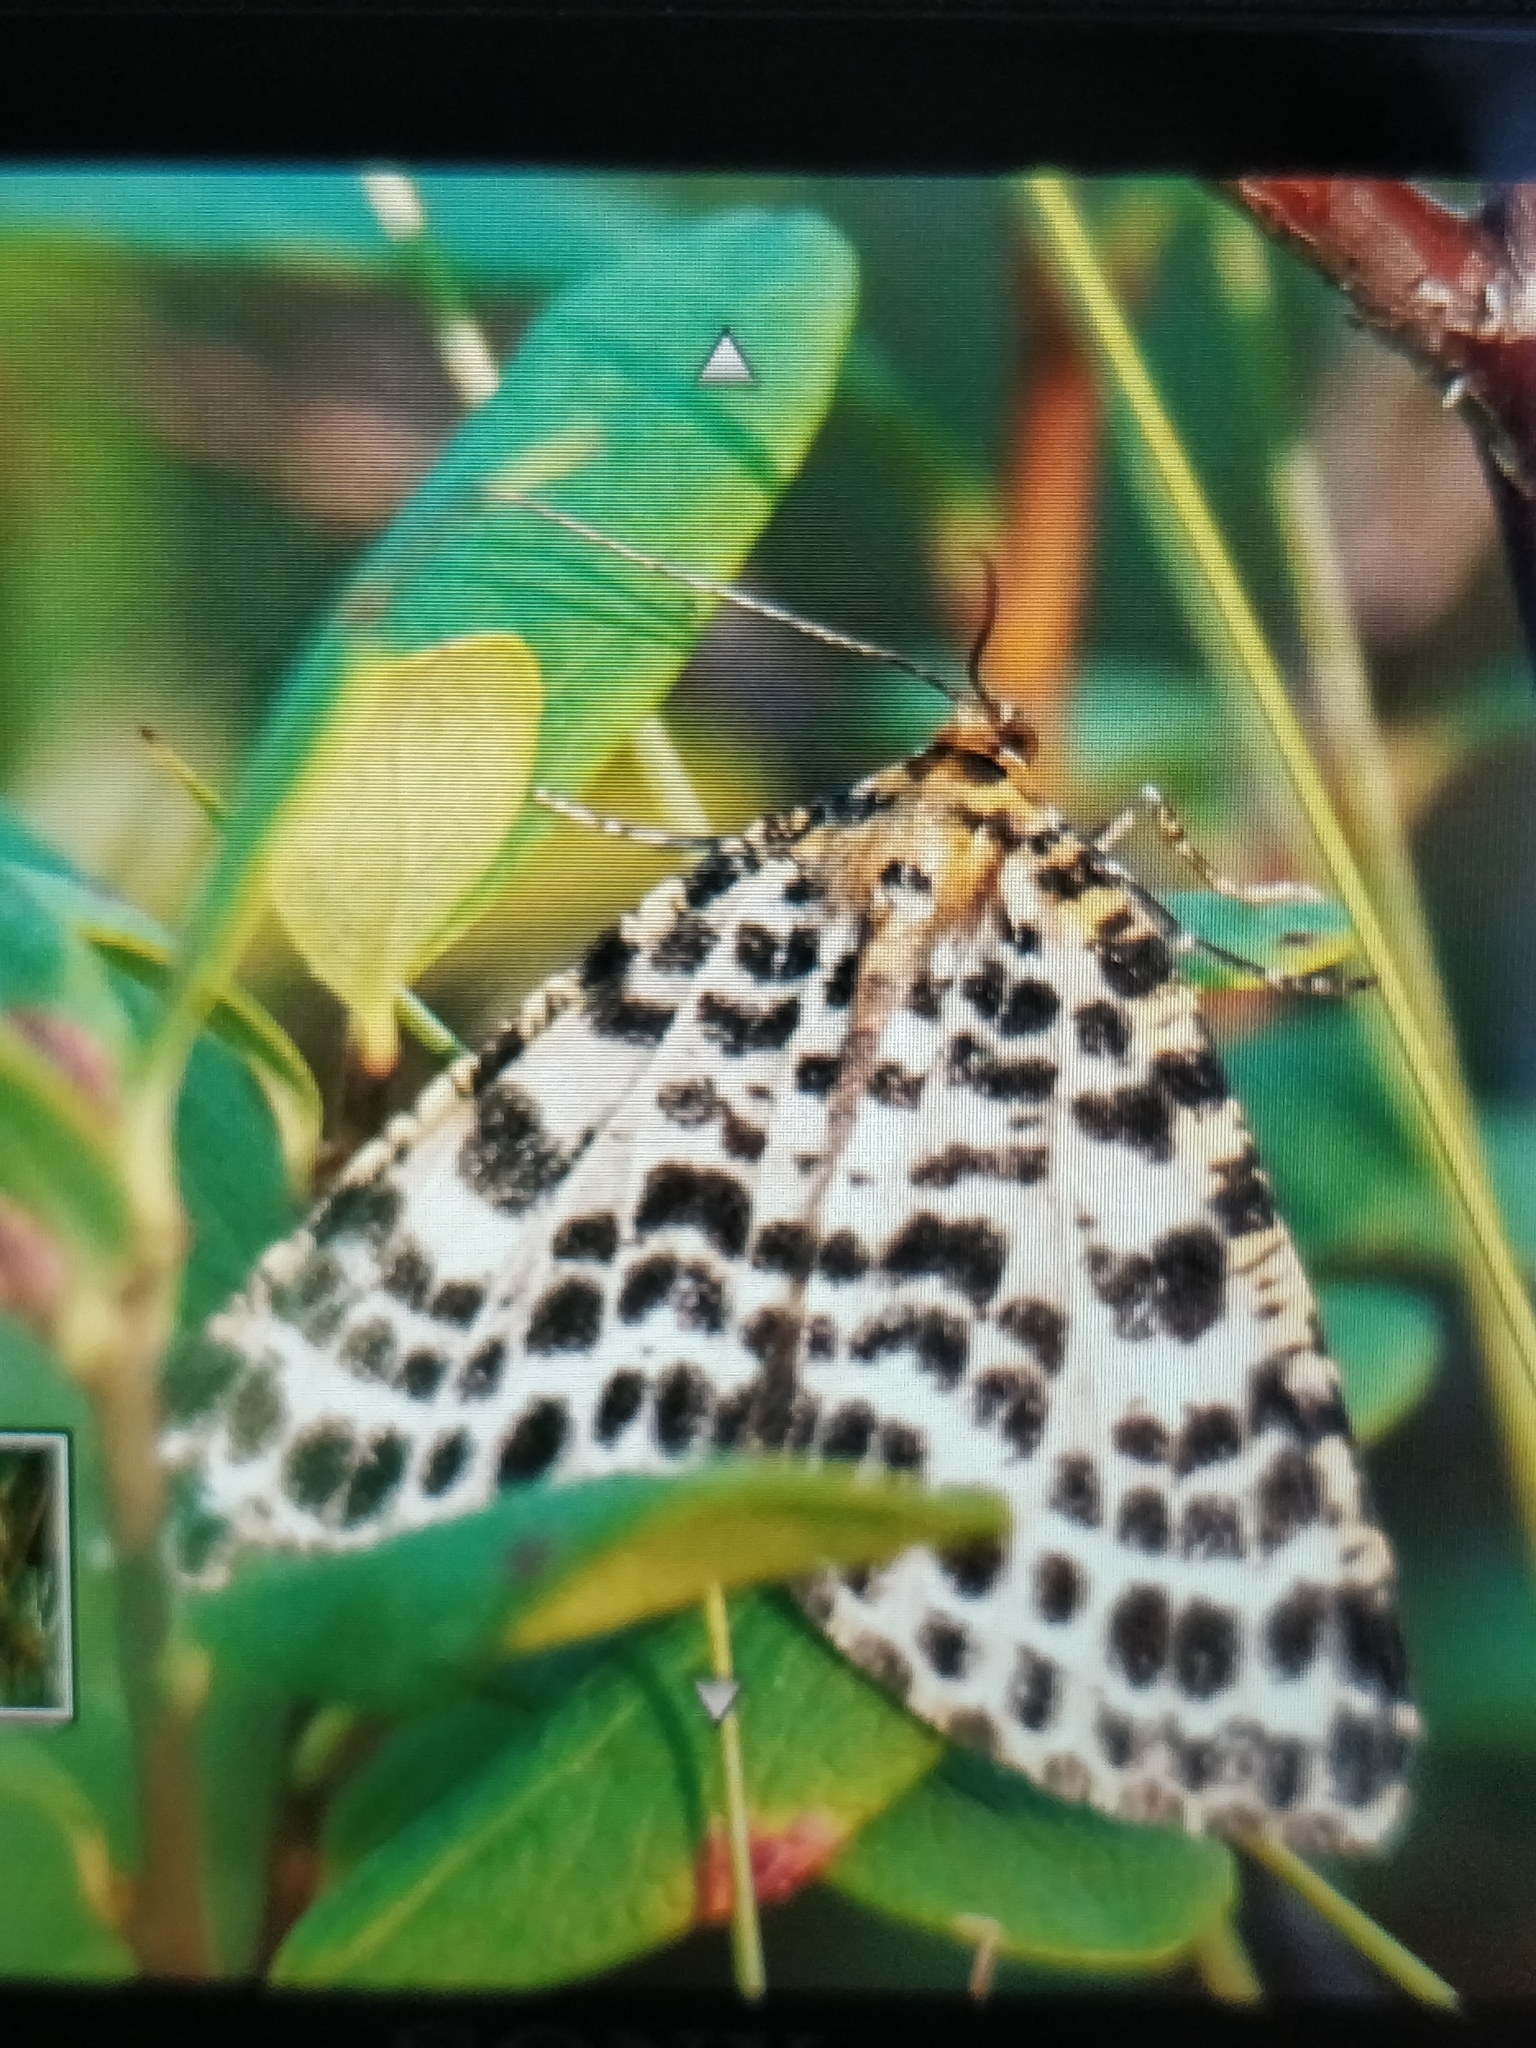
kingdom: Animalia
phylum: Arthropoda
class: Insecta
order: Lepidoptera
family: Geometridae
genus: Arichanna
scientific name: Arichanna melanaria
